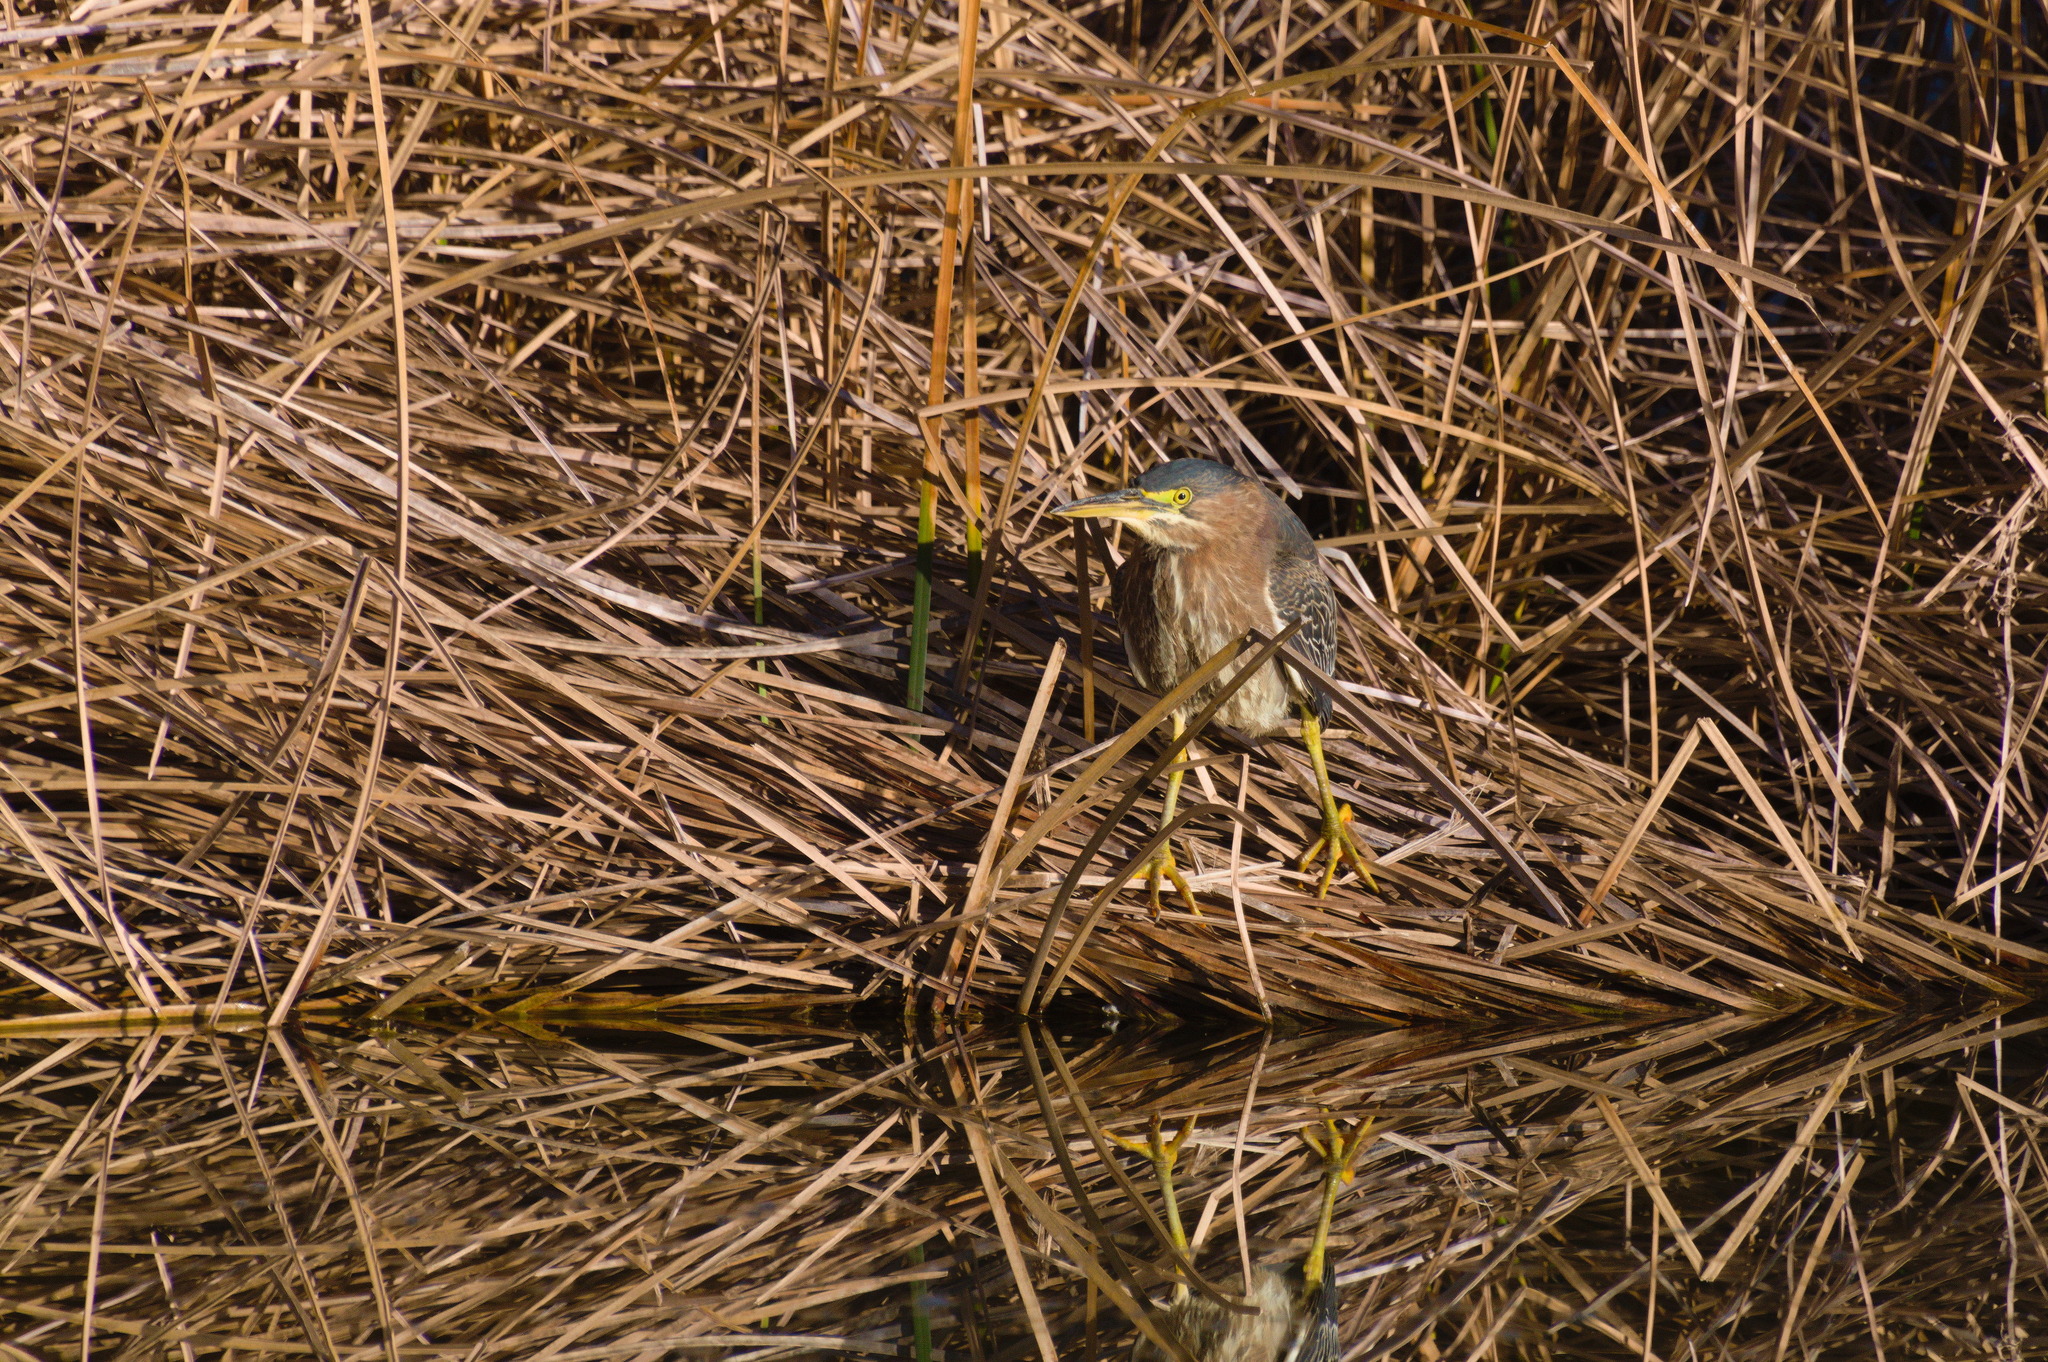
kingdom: Animalia
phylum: Chordata
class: Aves
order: Pelecaniformes
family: Ardeidae
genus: Butorides
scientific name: Butorides virescens
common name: Green heron
